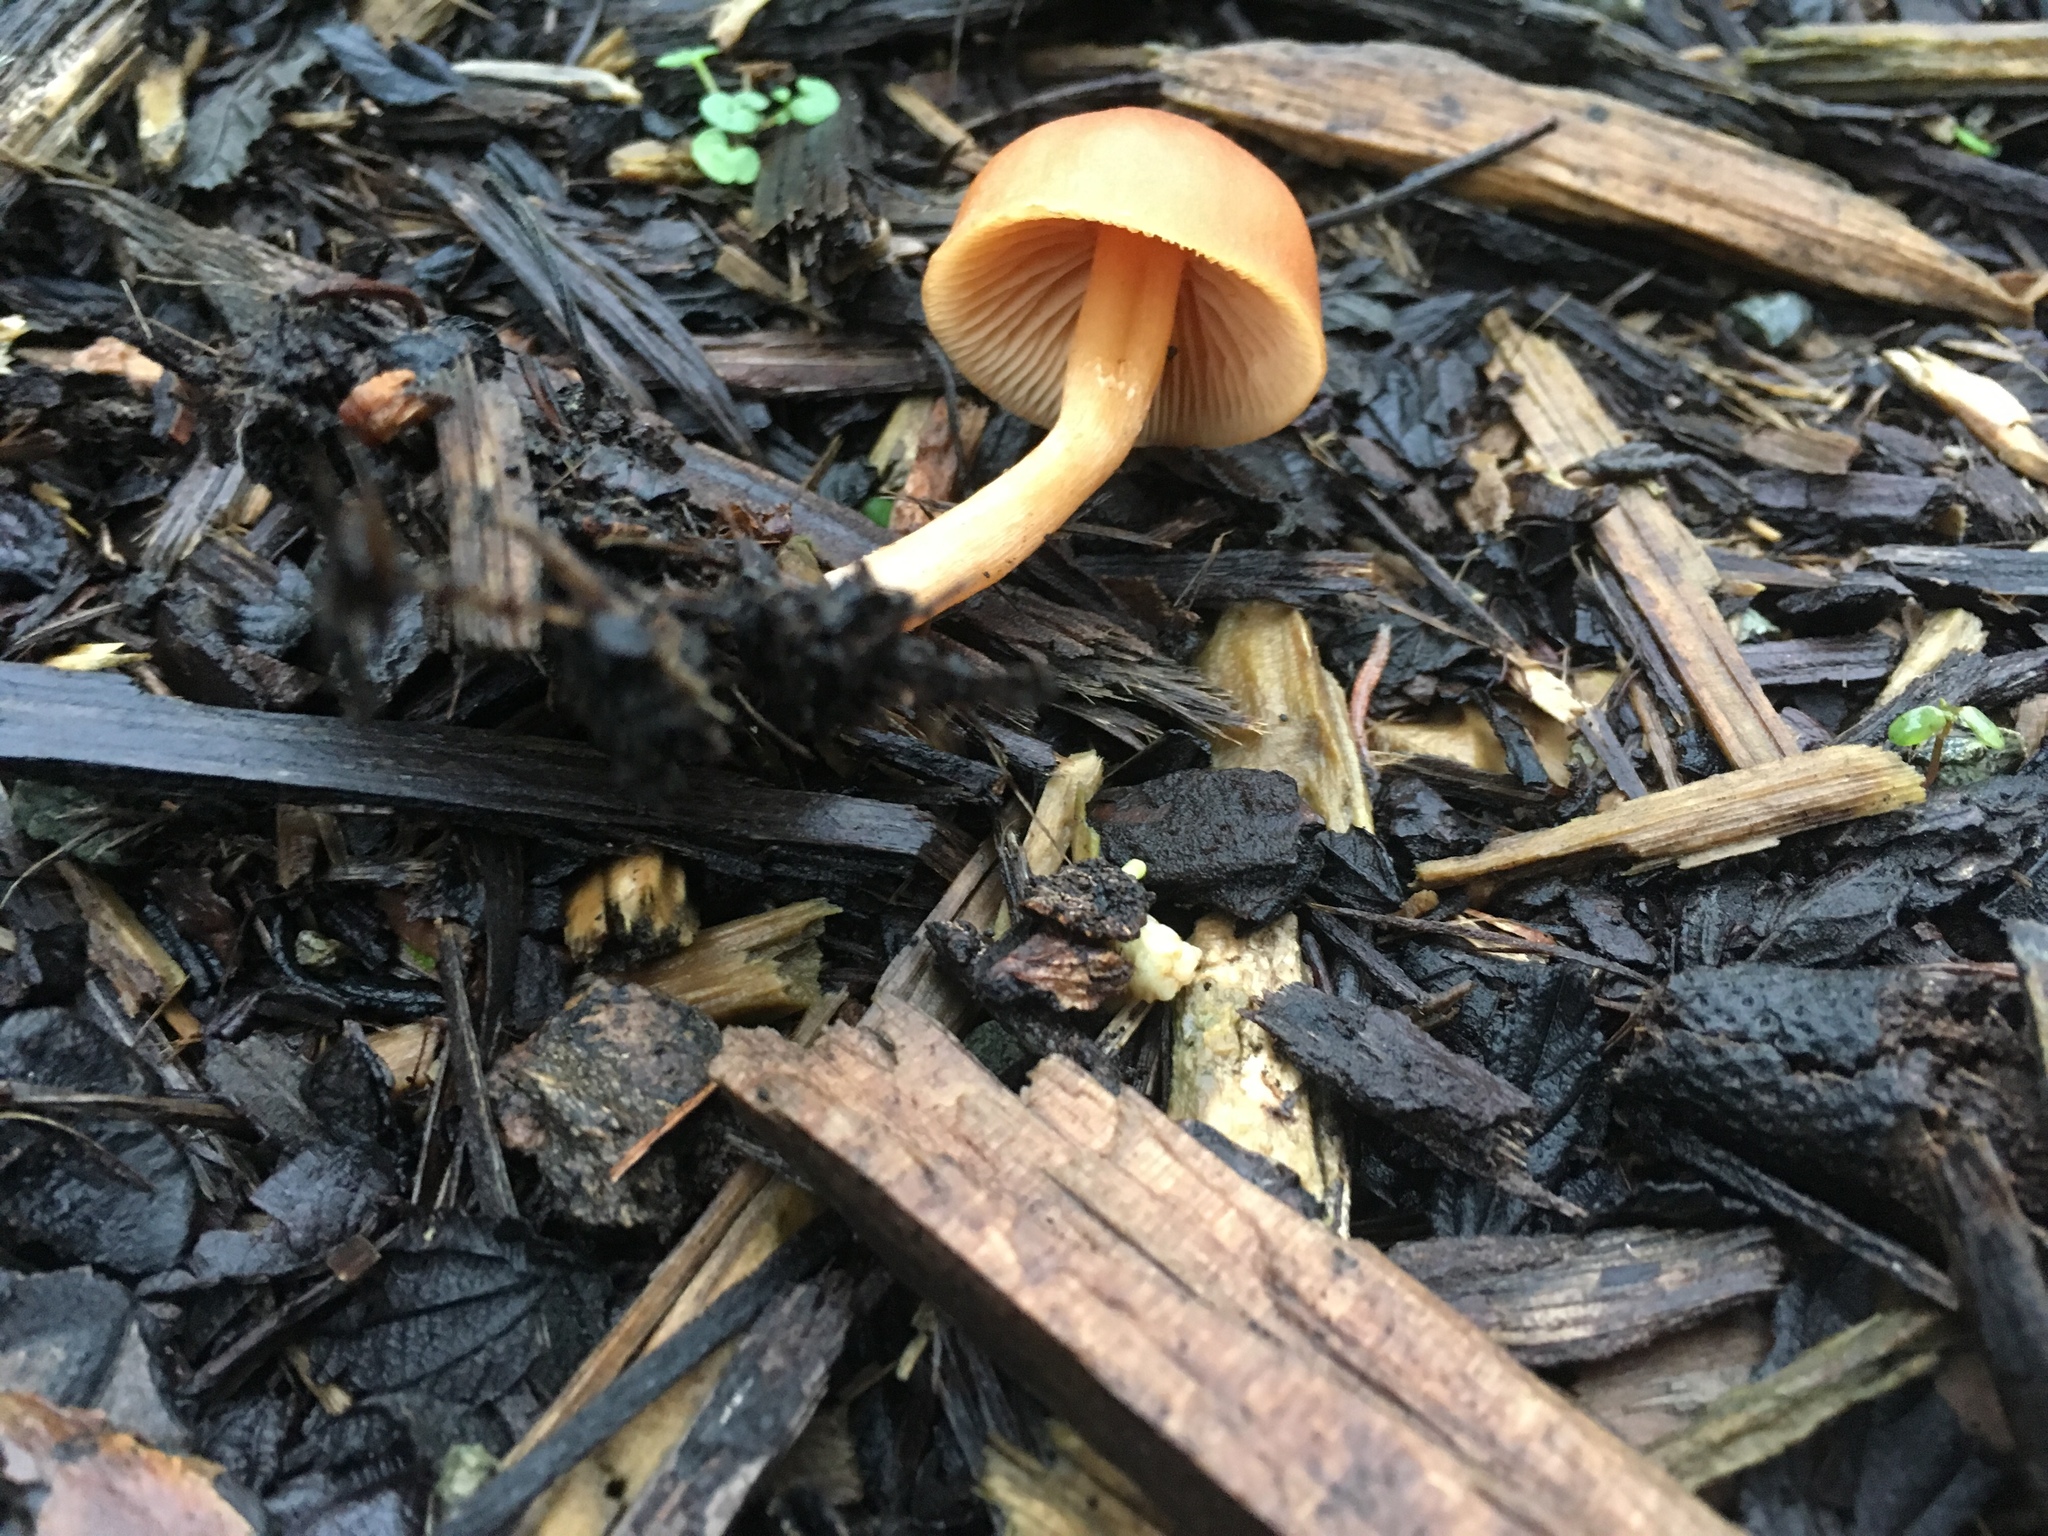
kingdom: Fungi
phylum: Basidiomycota
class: Agaricomycetes
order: Agaricales
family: Tubariaceae
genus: Tubaria
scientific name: Tubaria furfuracea
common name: Scurfy twiglet
